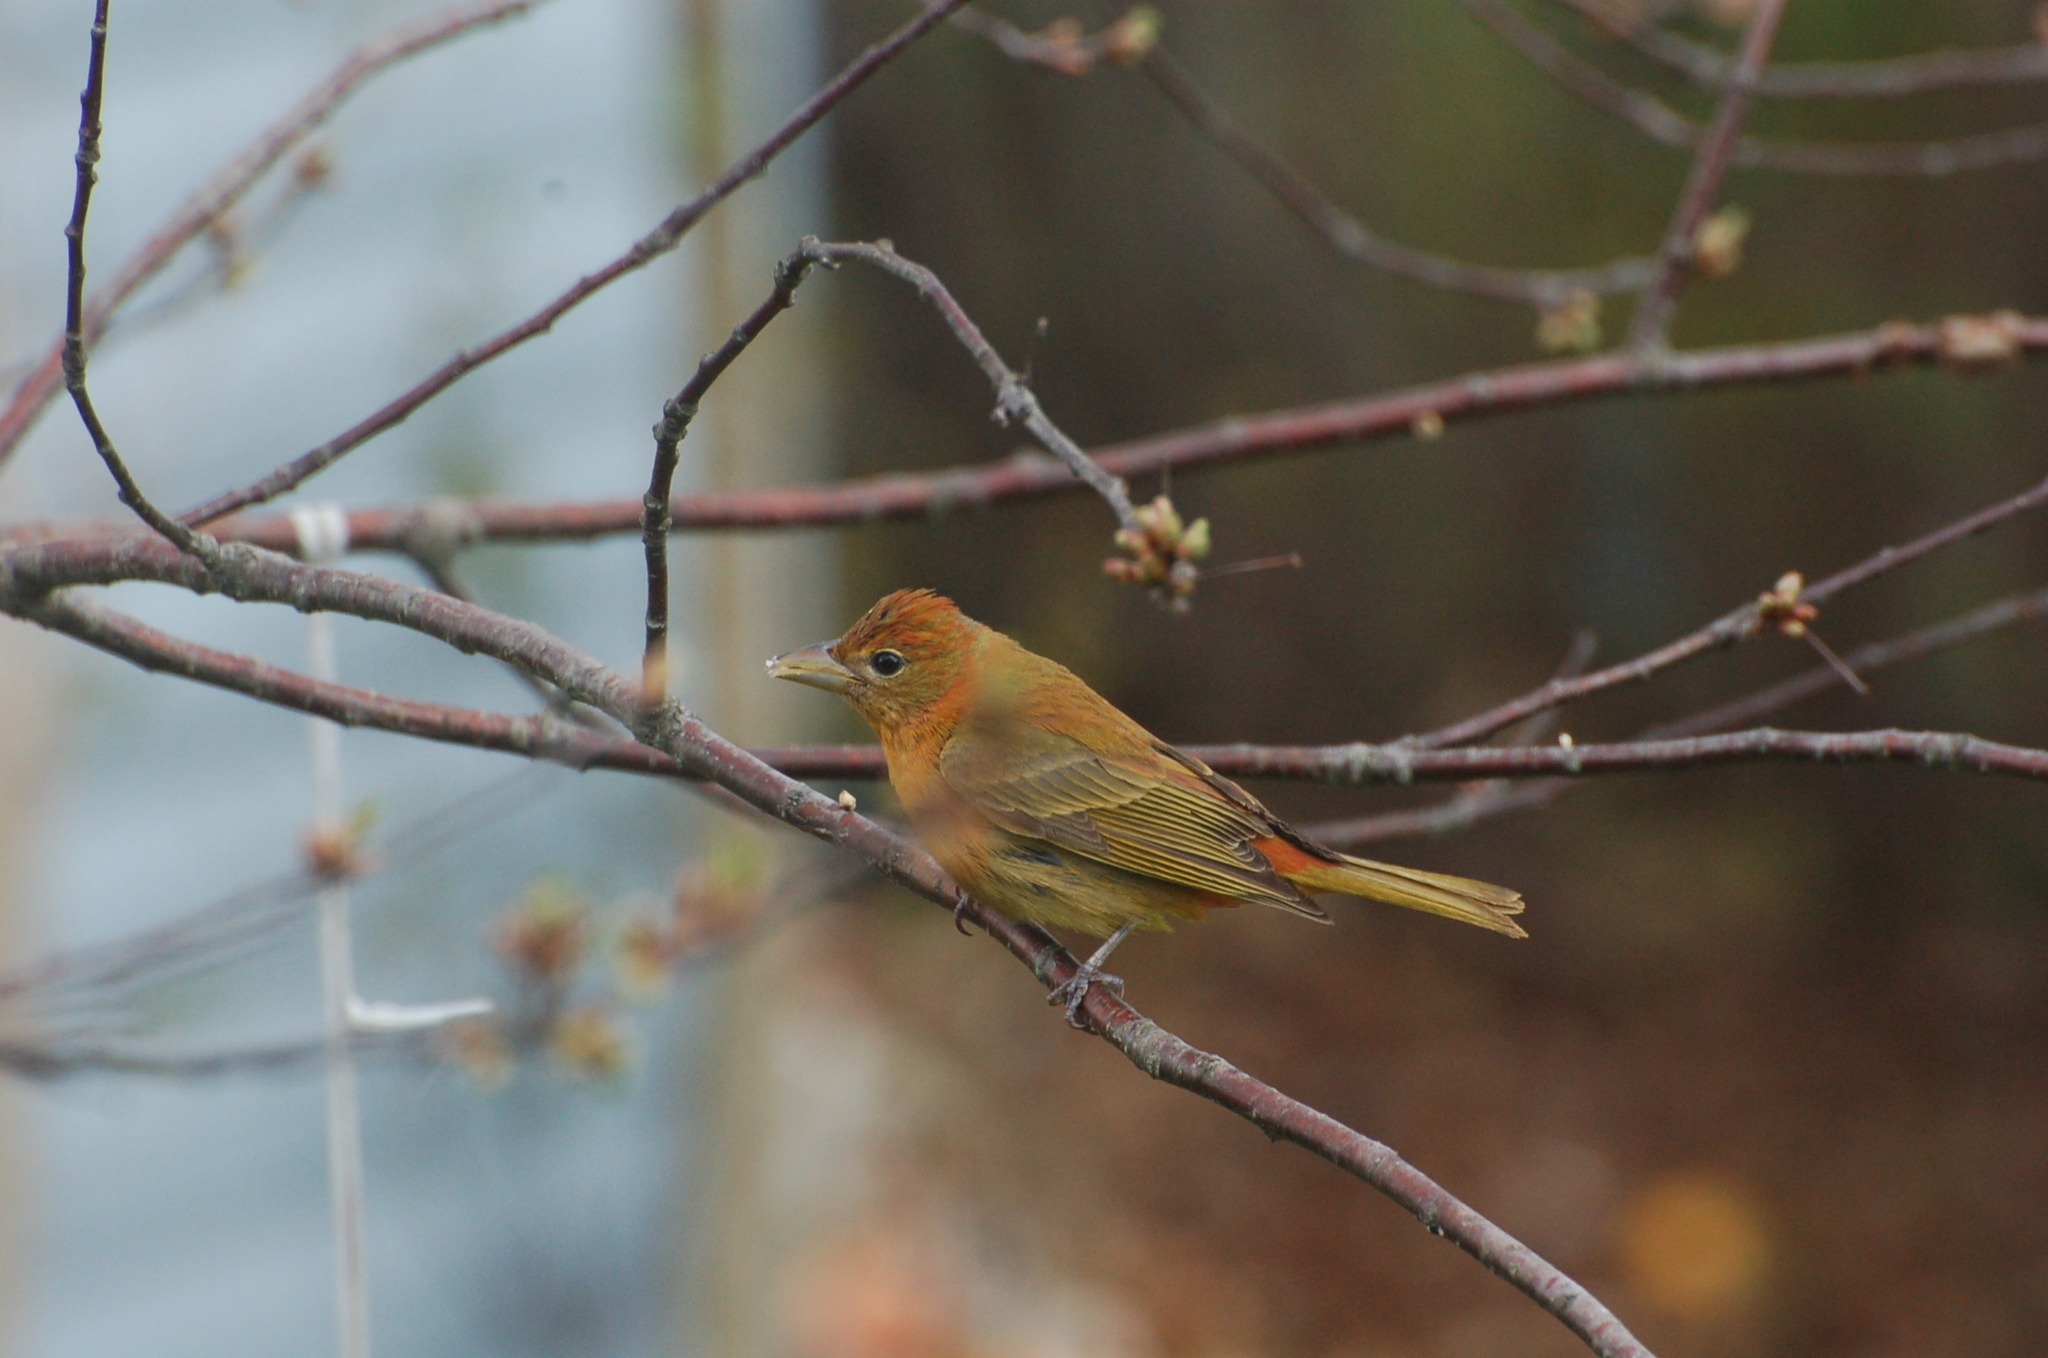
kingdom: Animalia
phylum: Chordata
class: Aves
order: Passeriformes
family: Cardinalidae
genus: Piranga
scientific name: Piranga rubra
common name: Summer tanager
